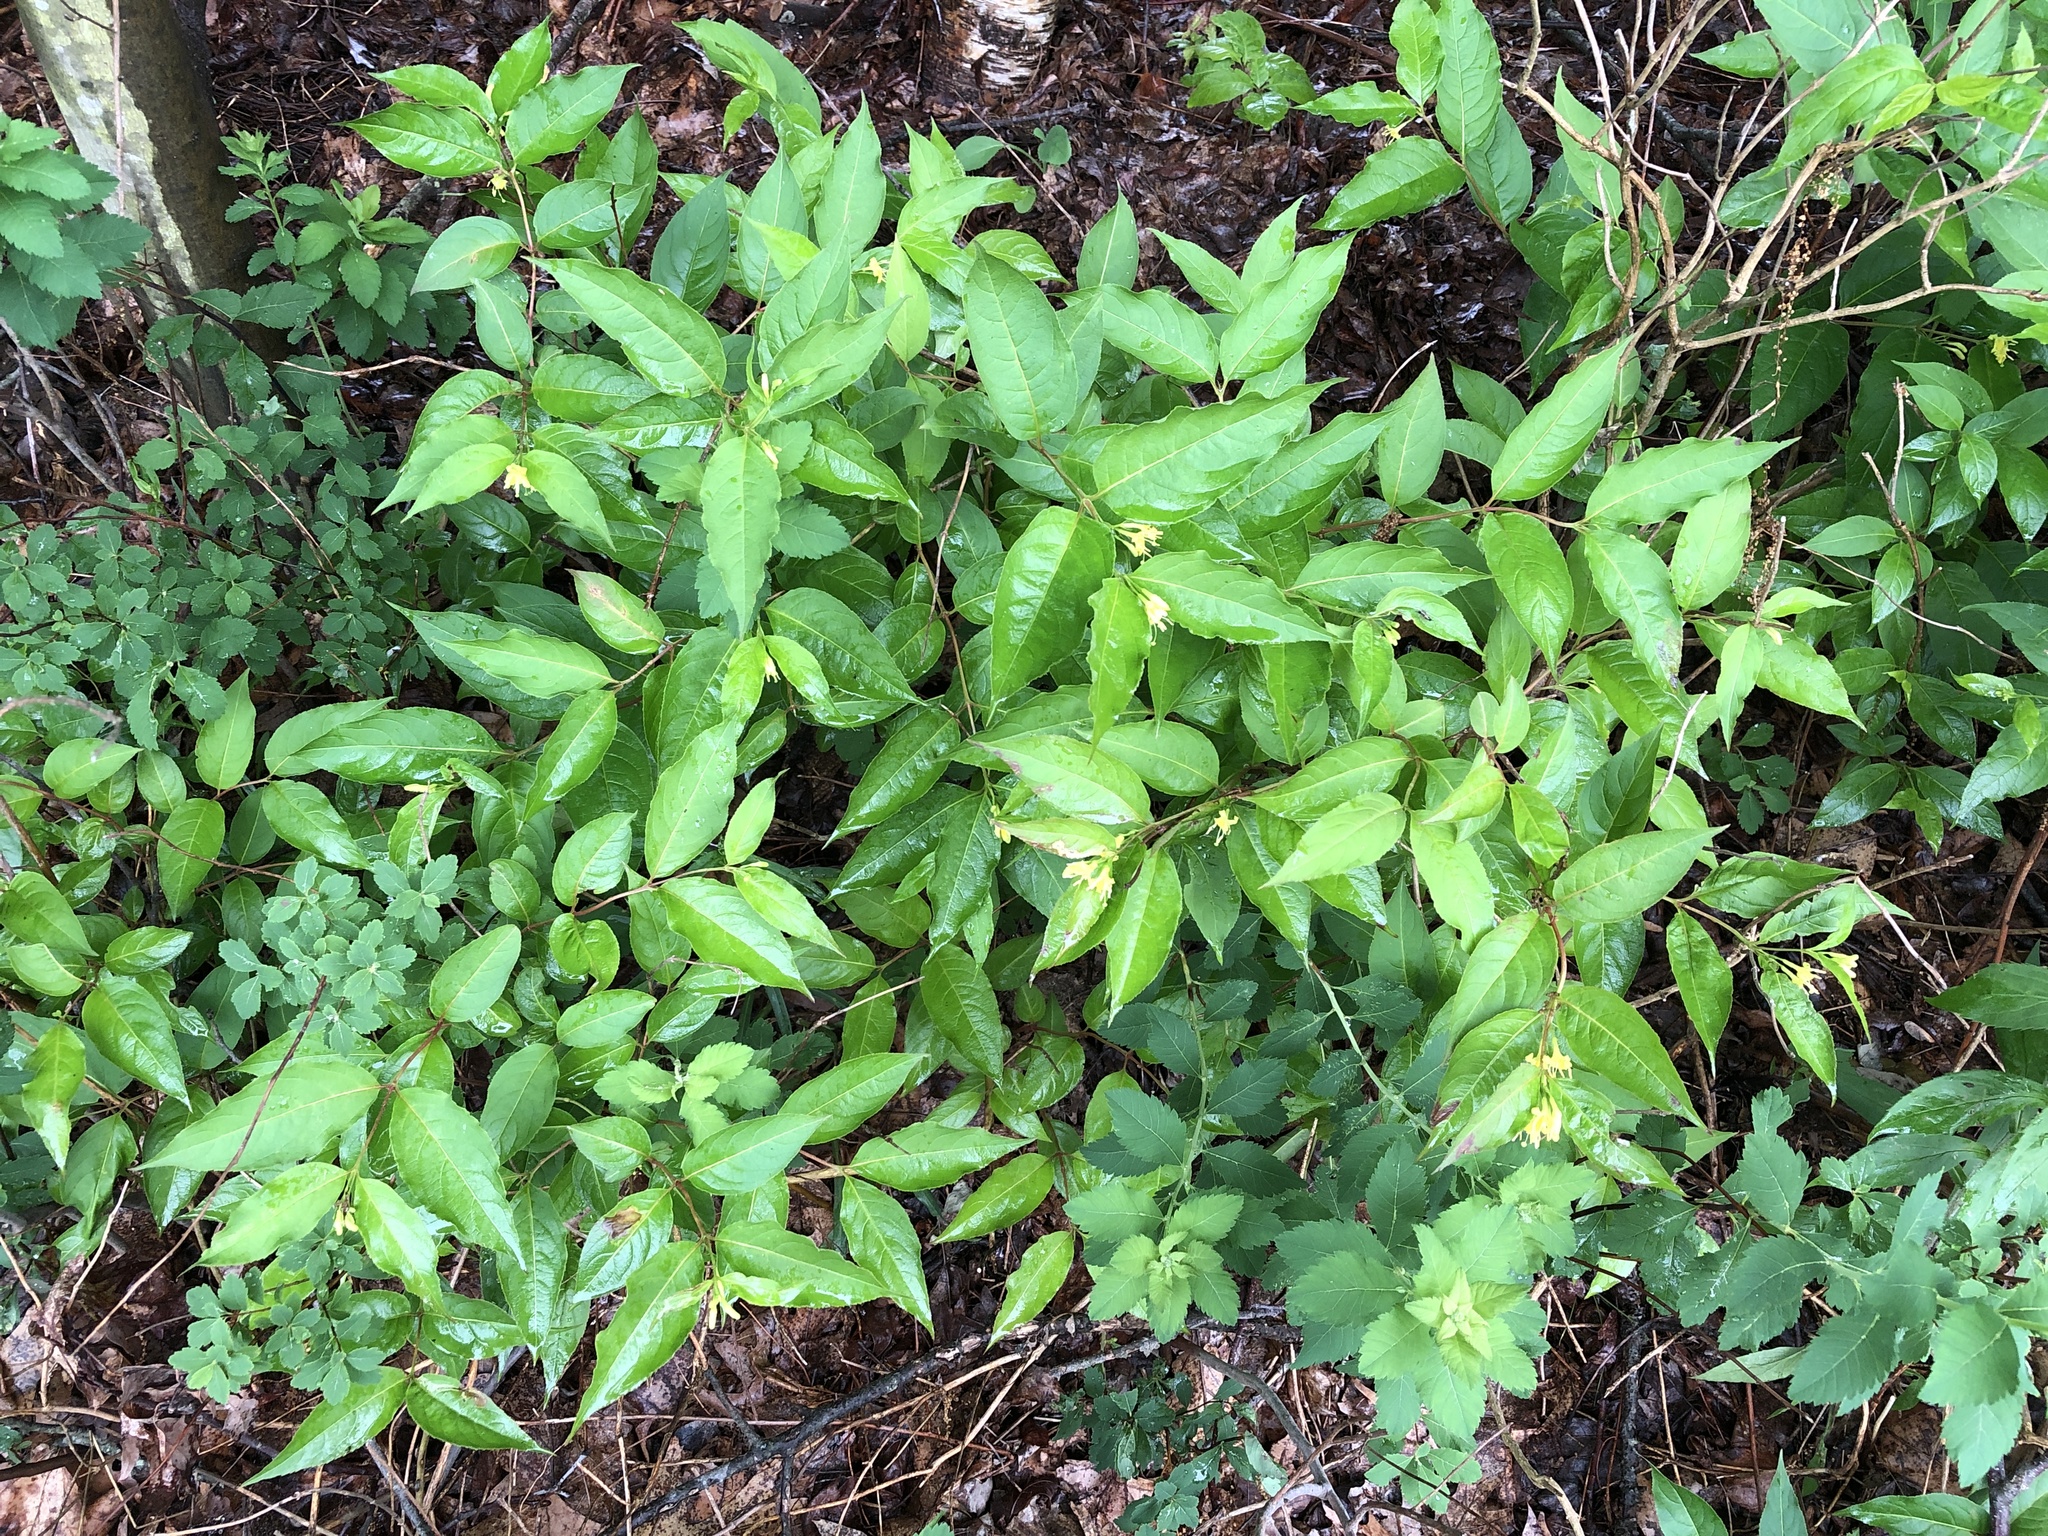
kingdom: Plantae
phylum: Tracheophyta
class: Magnoliopsida
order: Dipsacales
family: Caprifoliaceae
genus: Diervilla
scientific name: Diervilla lonicera
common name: Bush-honeysuckle
